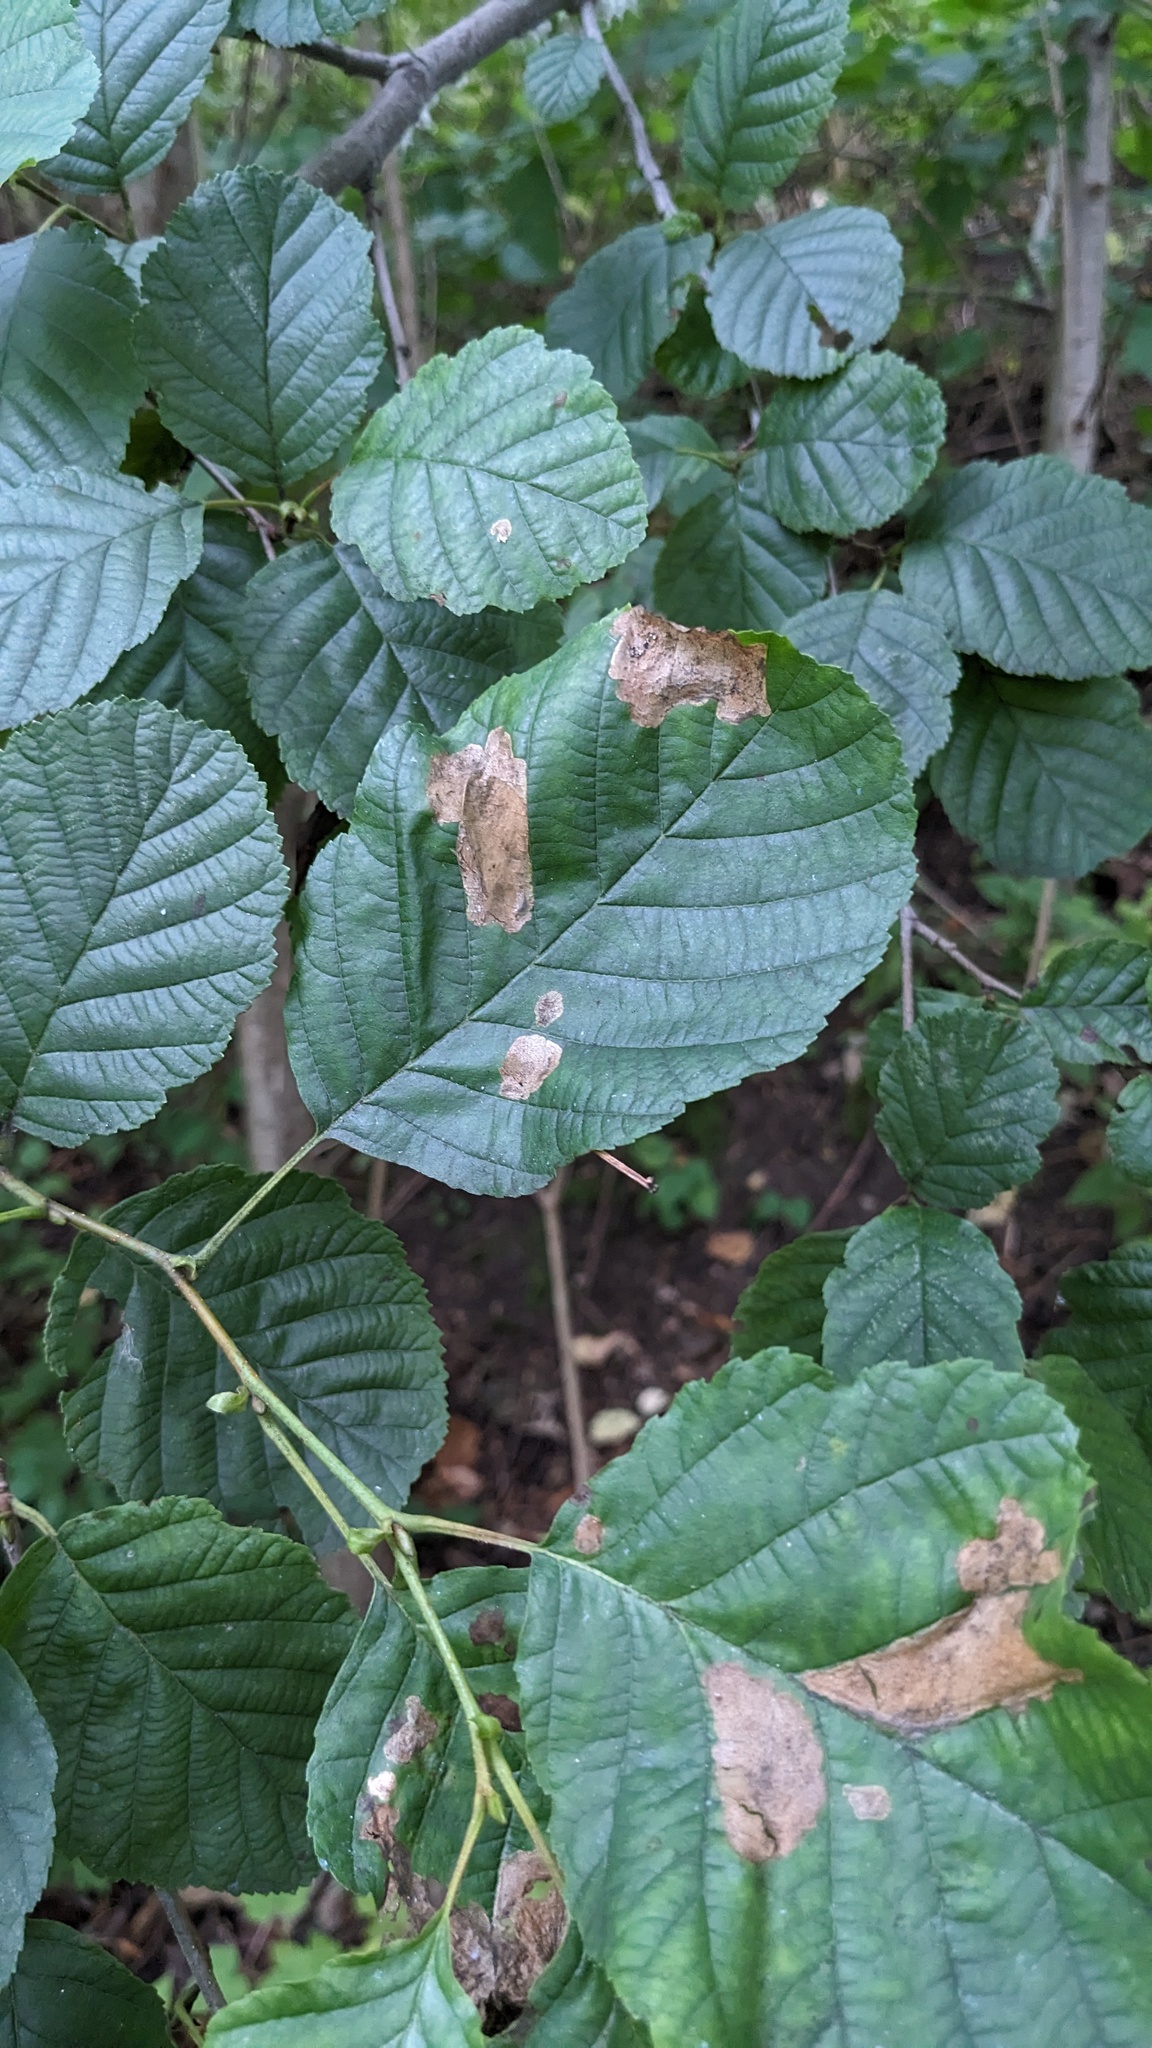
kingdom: Animalia
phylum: Arthropoda
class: Insecta
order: Hymenoptera
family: Tenthredinidae
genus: Fenusa
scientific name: Fenusa dohrnii
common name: European alder leafminer
